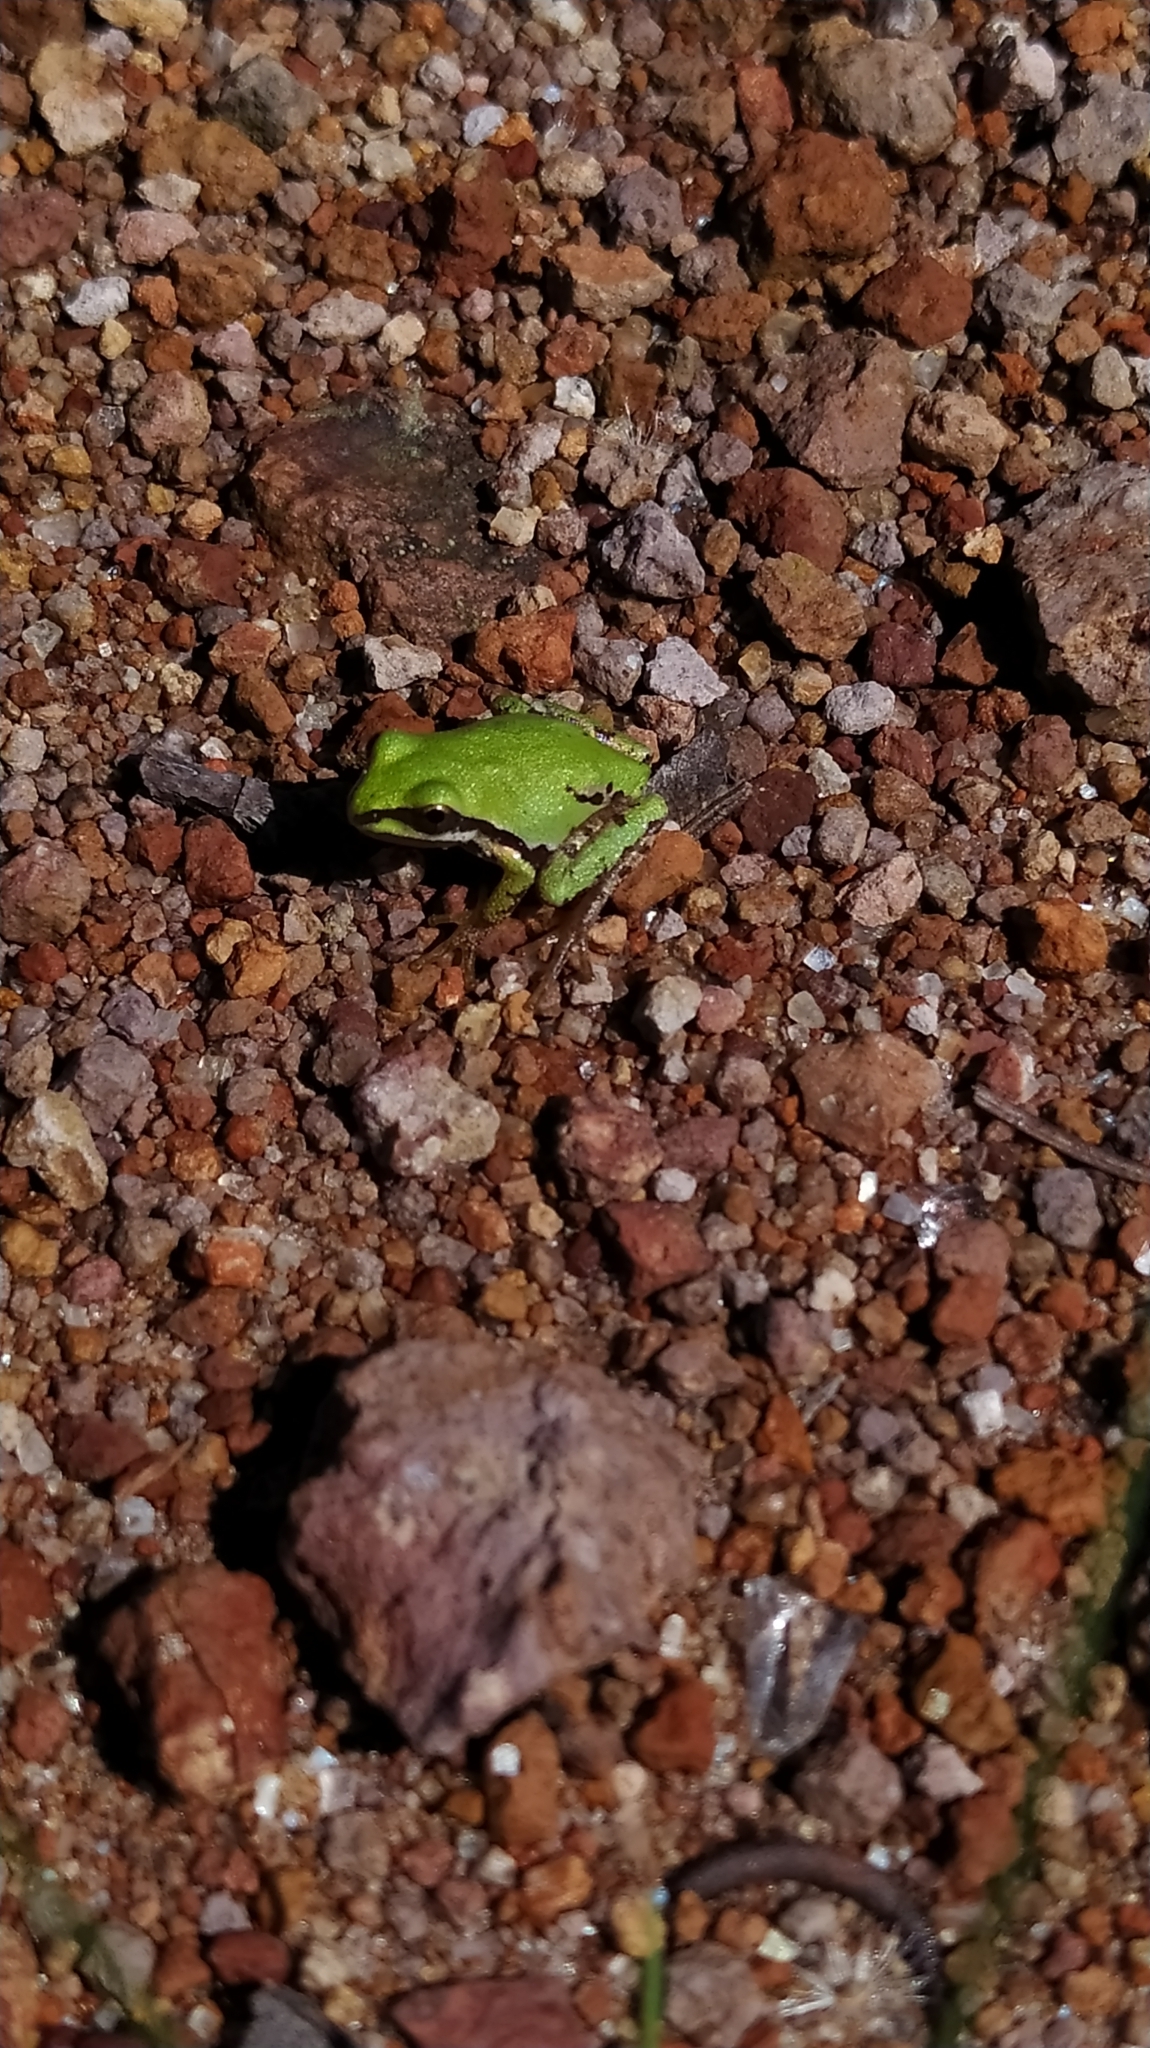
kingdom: Animalia
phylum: Chordata
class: Amphibia
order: Anura
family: Hylidae
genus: Dryophytes
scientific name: Dryophytes eximius
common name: Mountain treefrog
